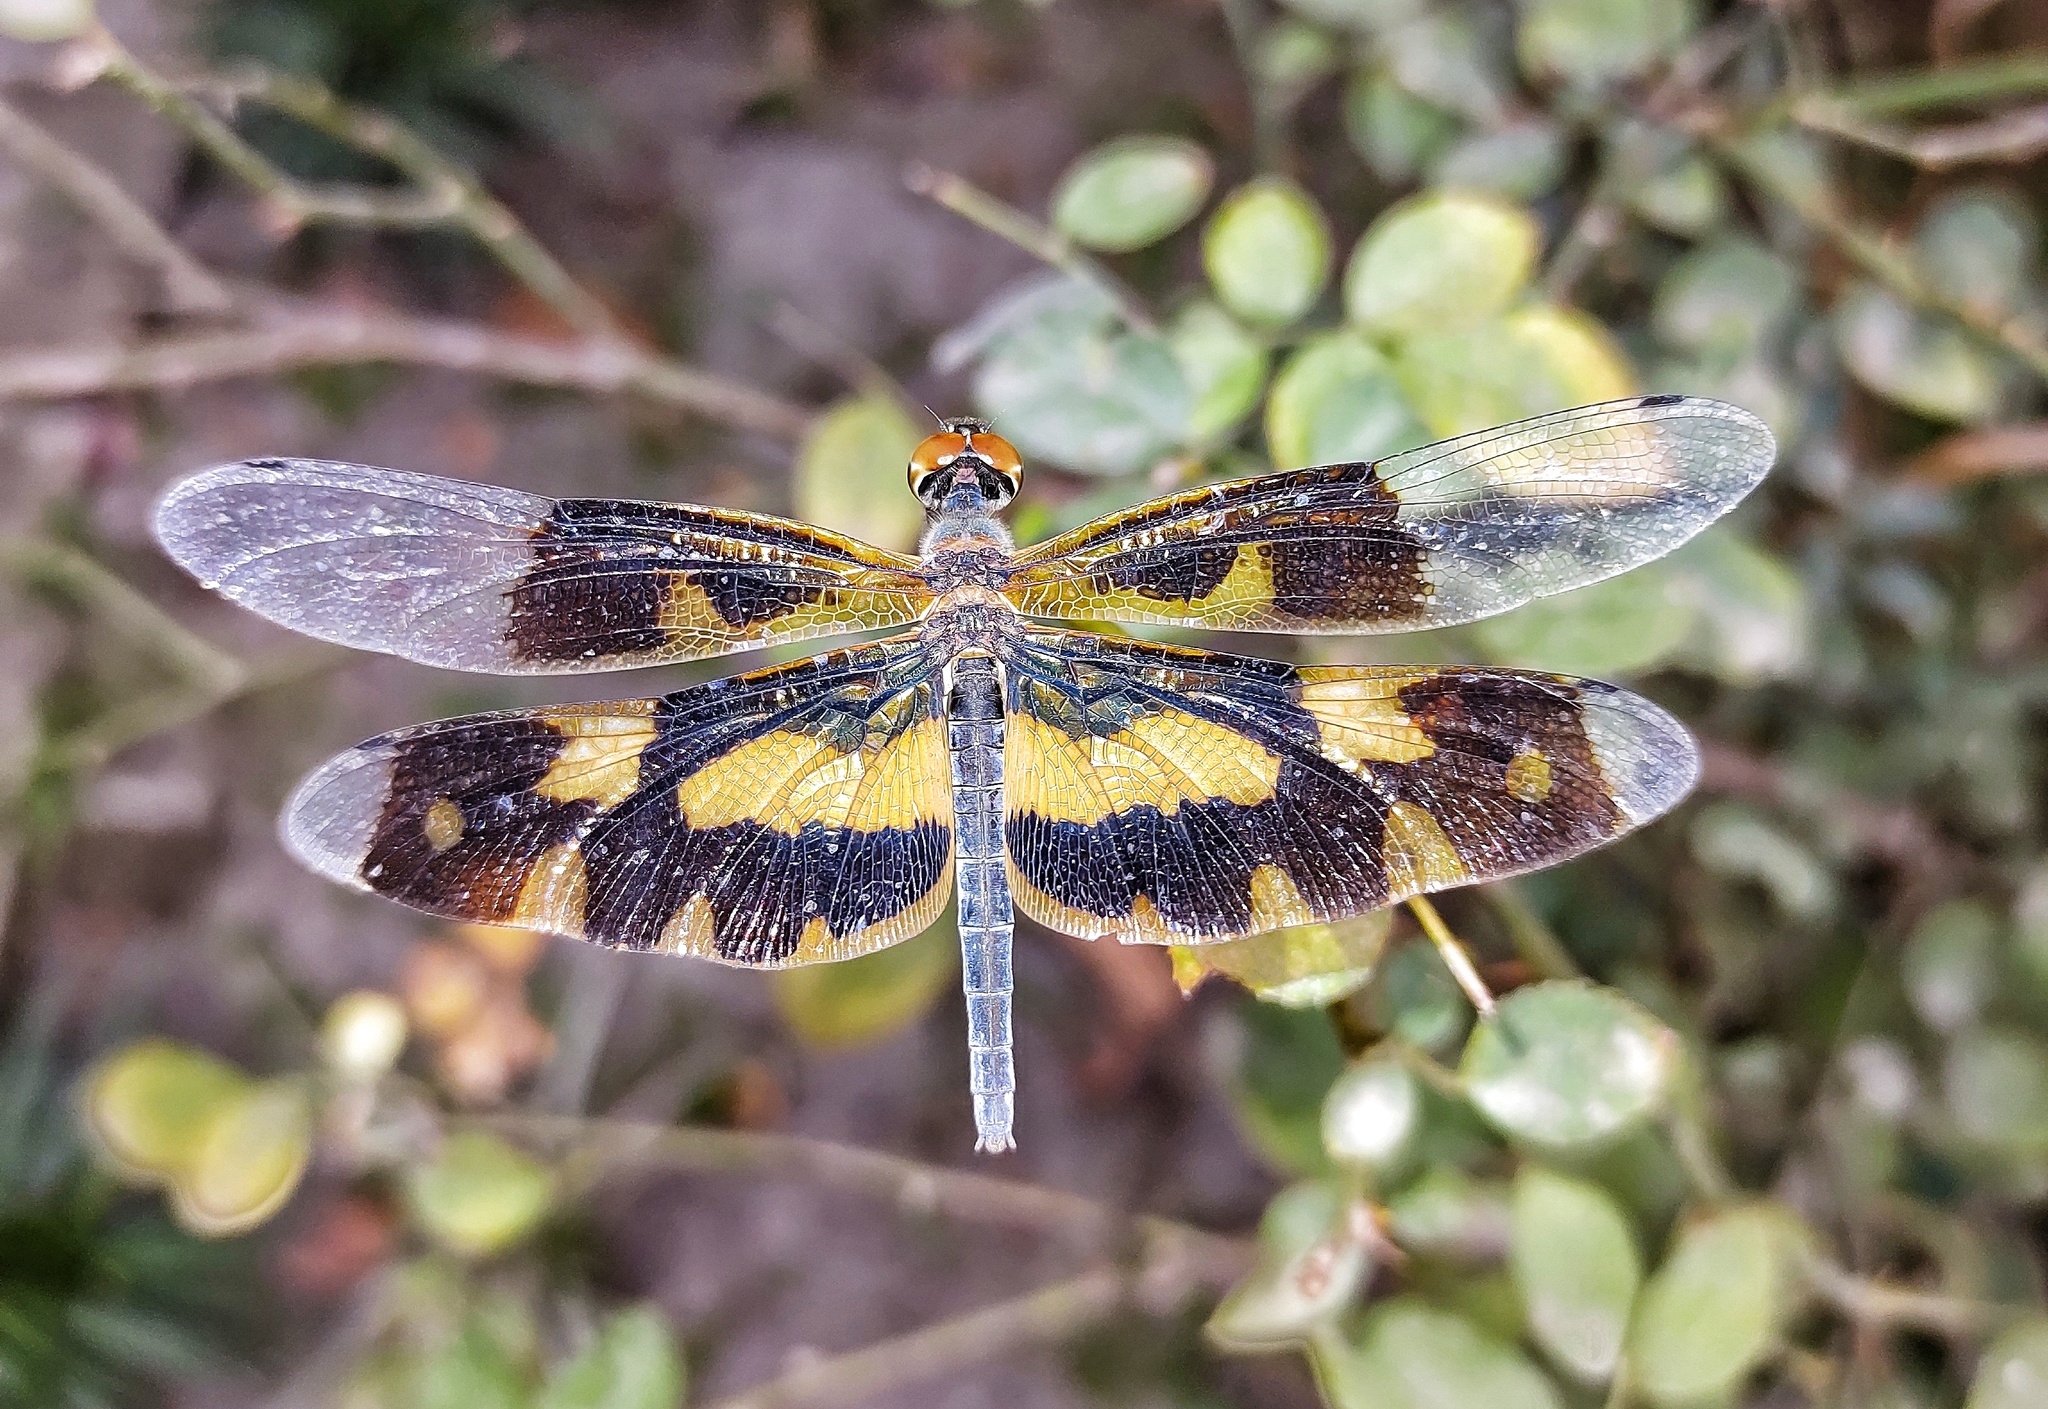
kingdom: Animalia
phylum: Arthropoda
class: Insecta
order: Odonata
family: Libellulidae
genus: Rhyothemis
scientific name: Rhyothemis variegata
